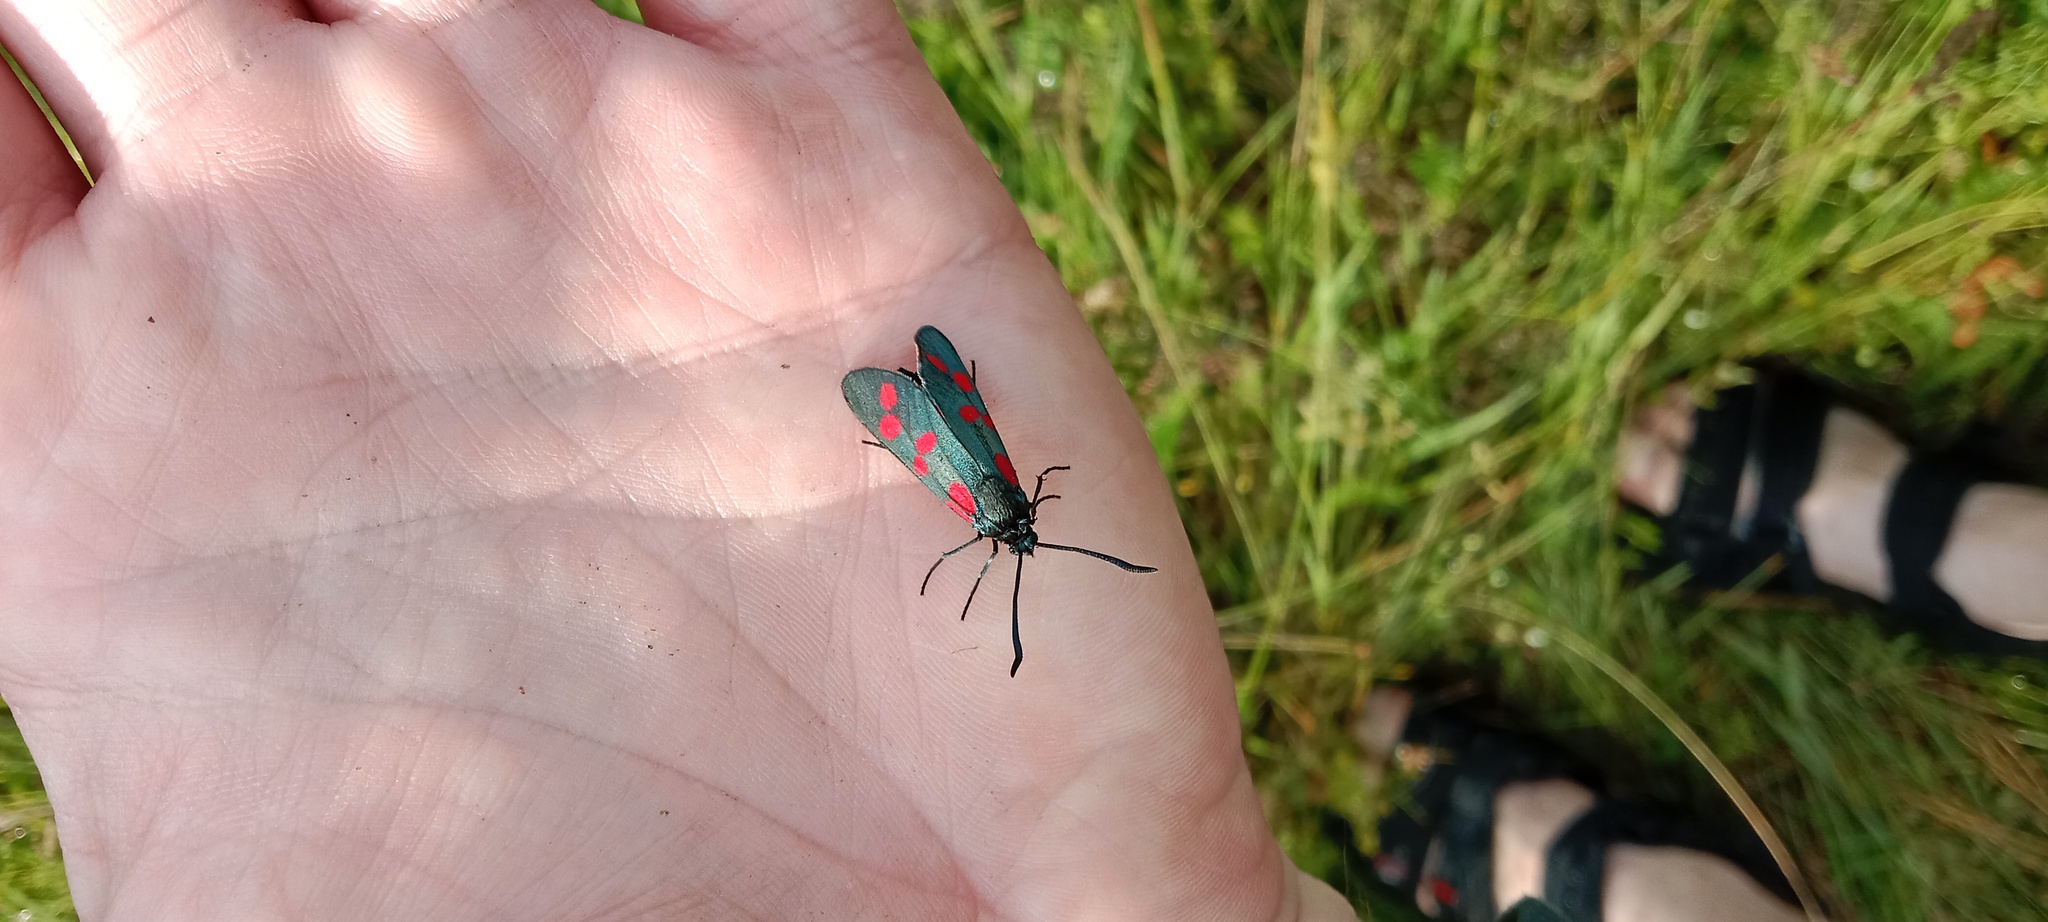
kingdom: Animalia
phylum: Arthropoda
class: Insecta
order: Lepidoptera
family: Zygaenidae
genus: Zygaena
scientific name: Zygaena filipendulae
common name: Six-spot burnet
